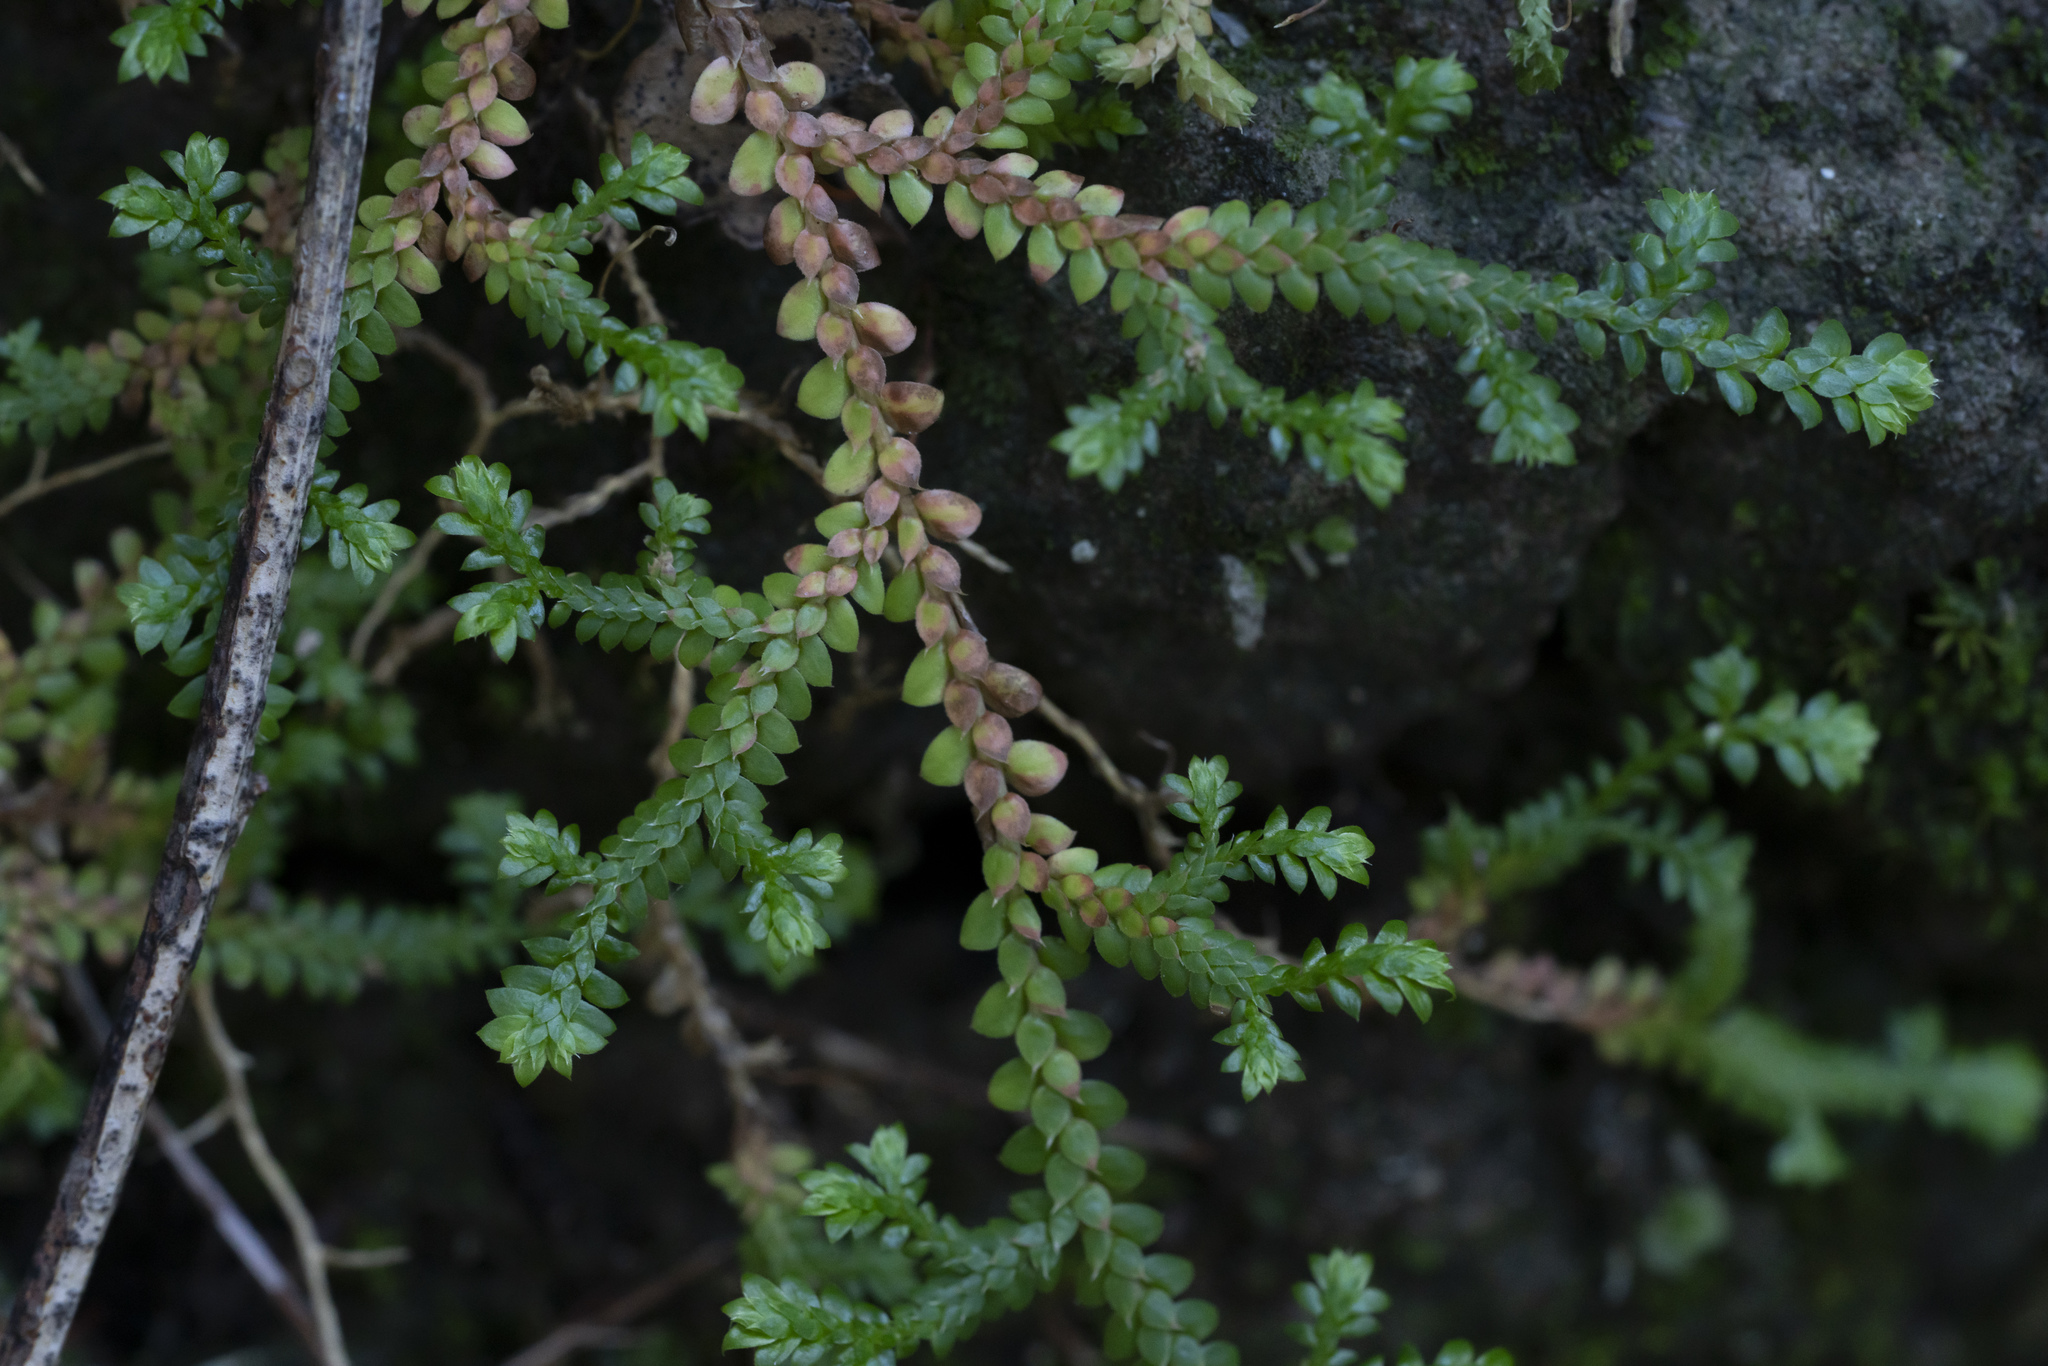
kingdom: Plantae
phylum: Tracheophyta
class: Lycopodiopsida
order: Selaginellales
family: Selaginellaceae
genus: Selaginella
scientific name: Selaginella denticulata
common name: Toothed-leaved clubmoss
